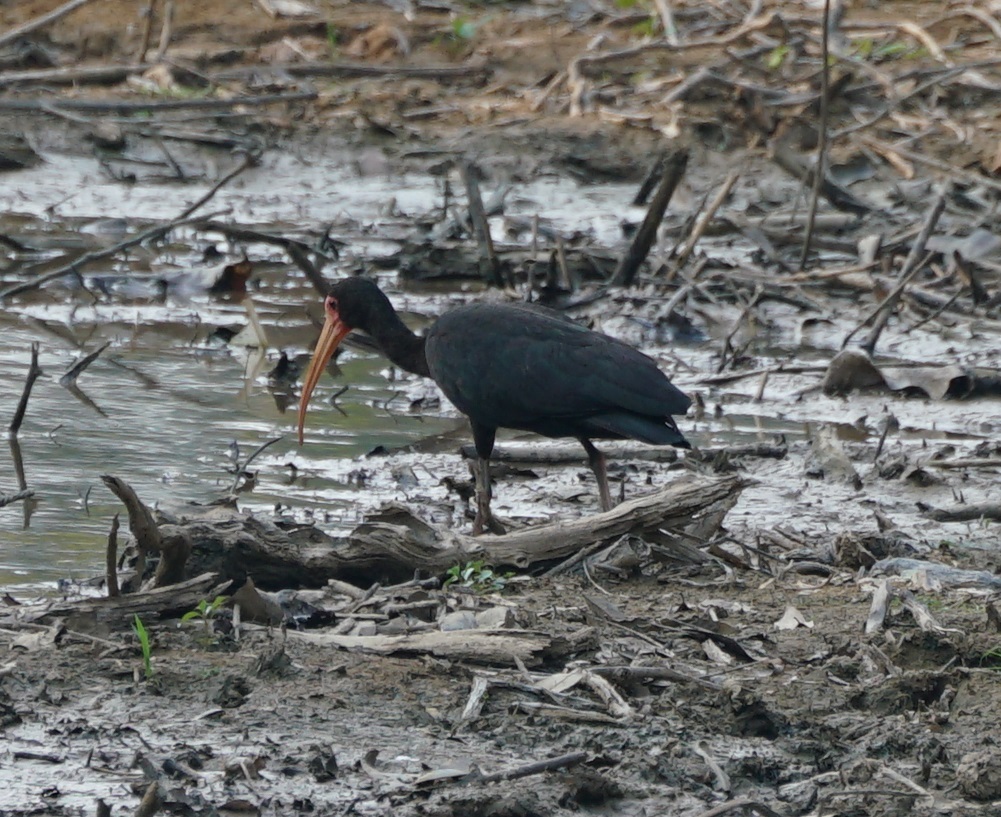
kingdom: Animalia
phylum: Chordata
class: Aves
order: Pelecaniformes
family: Threskiornithidae
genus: Phimosus
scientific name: Phimosus infuscatus
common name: Bare-faced ibis
